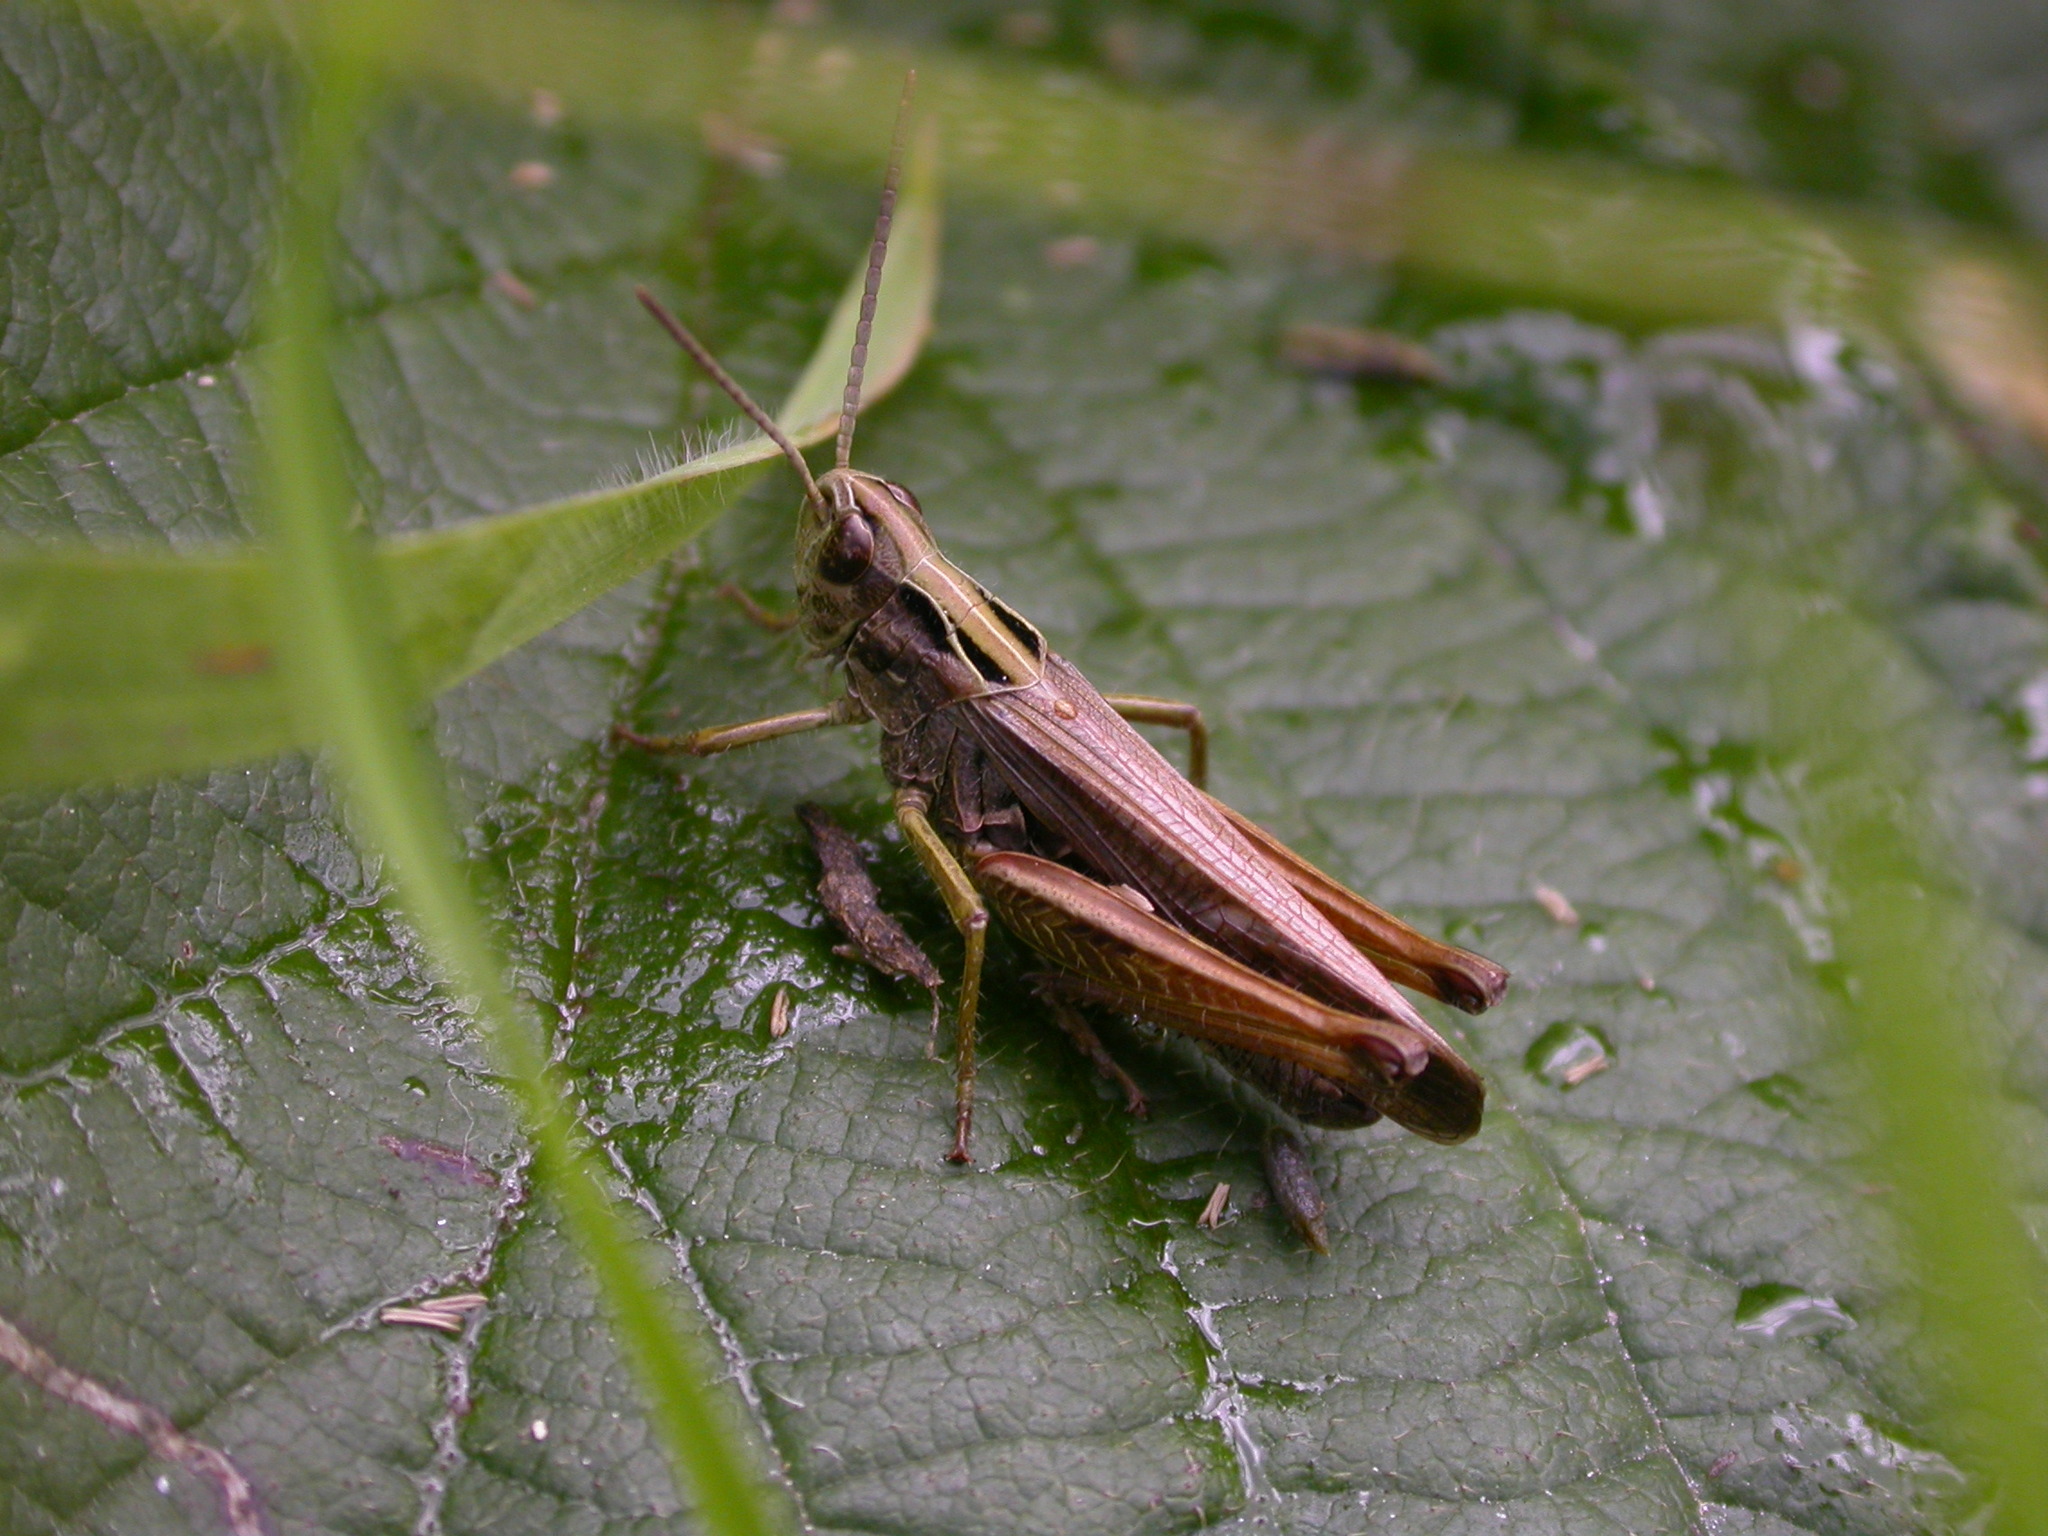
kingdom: Animalia
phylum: Arthropoda
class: Insecta
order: Orthoptera
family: Acrididae
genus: Omocestus
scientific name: Omocestus viridulus
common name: Common green grasshopper
